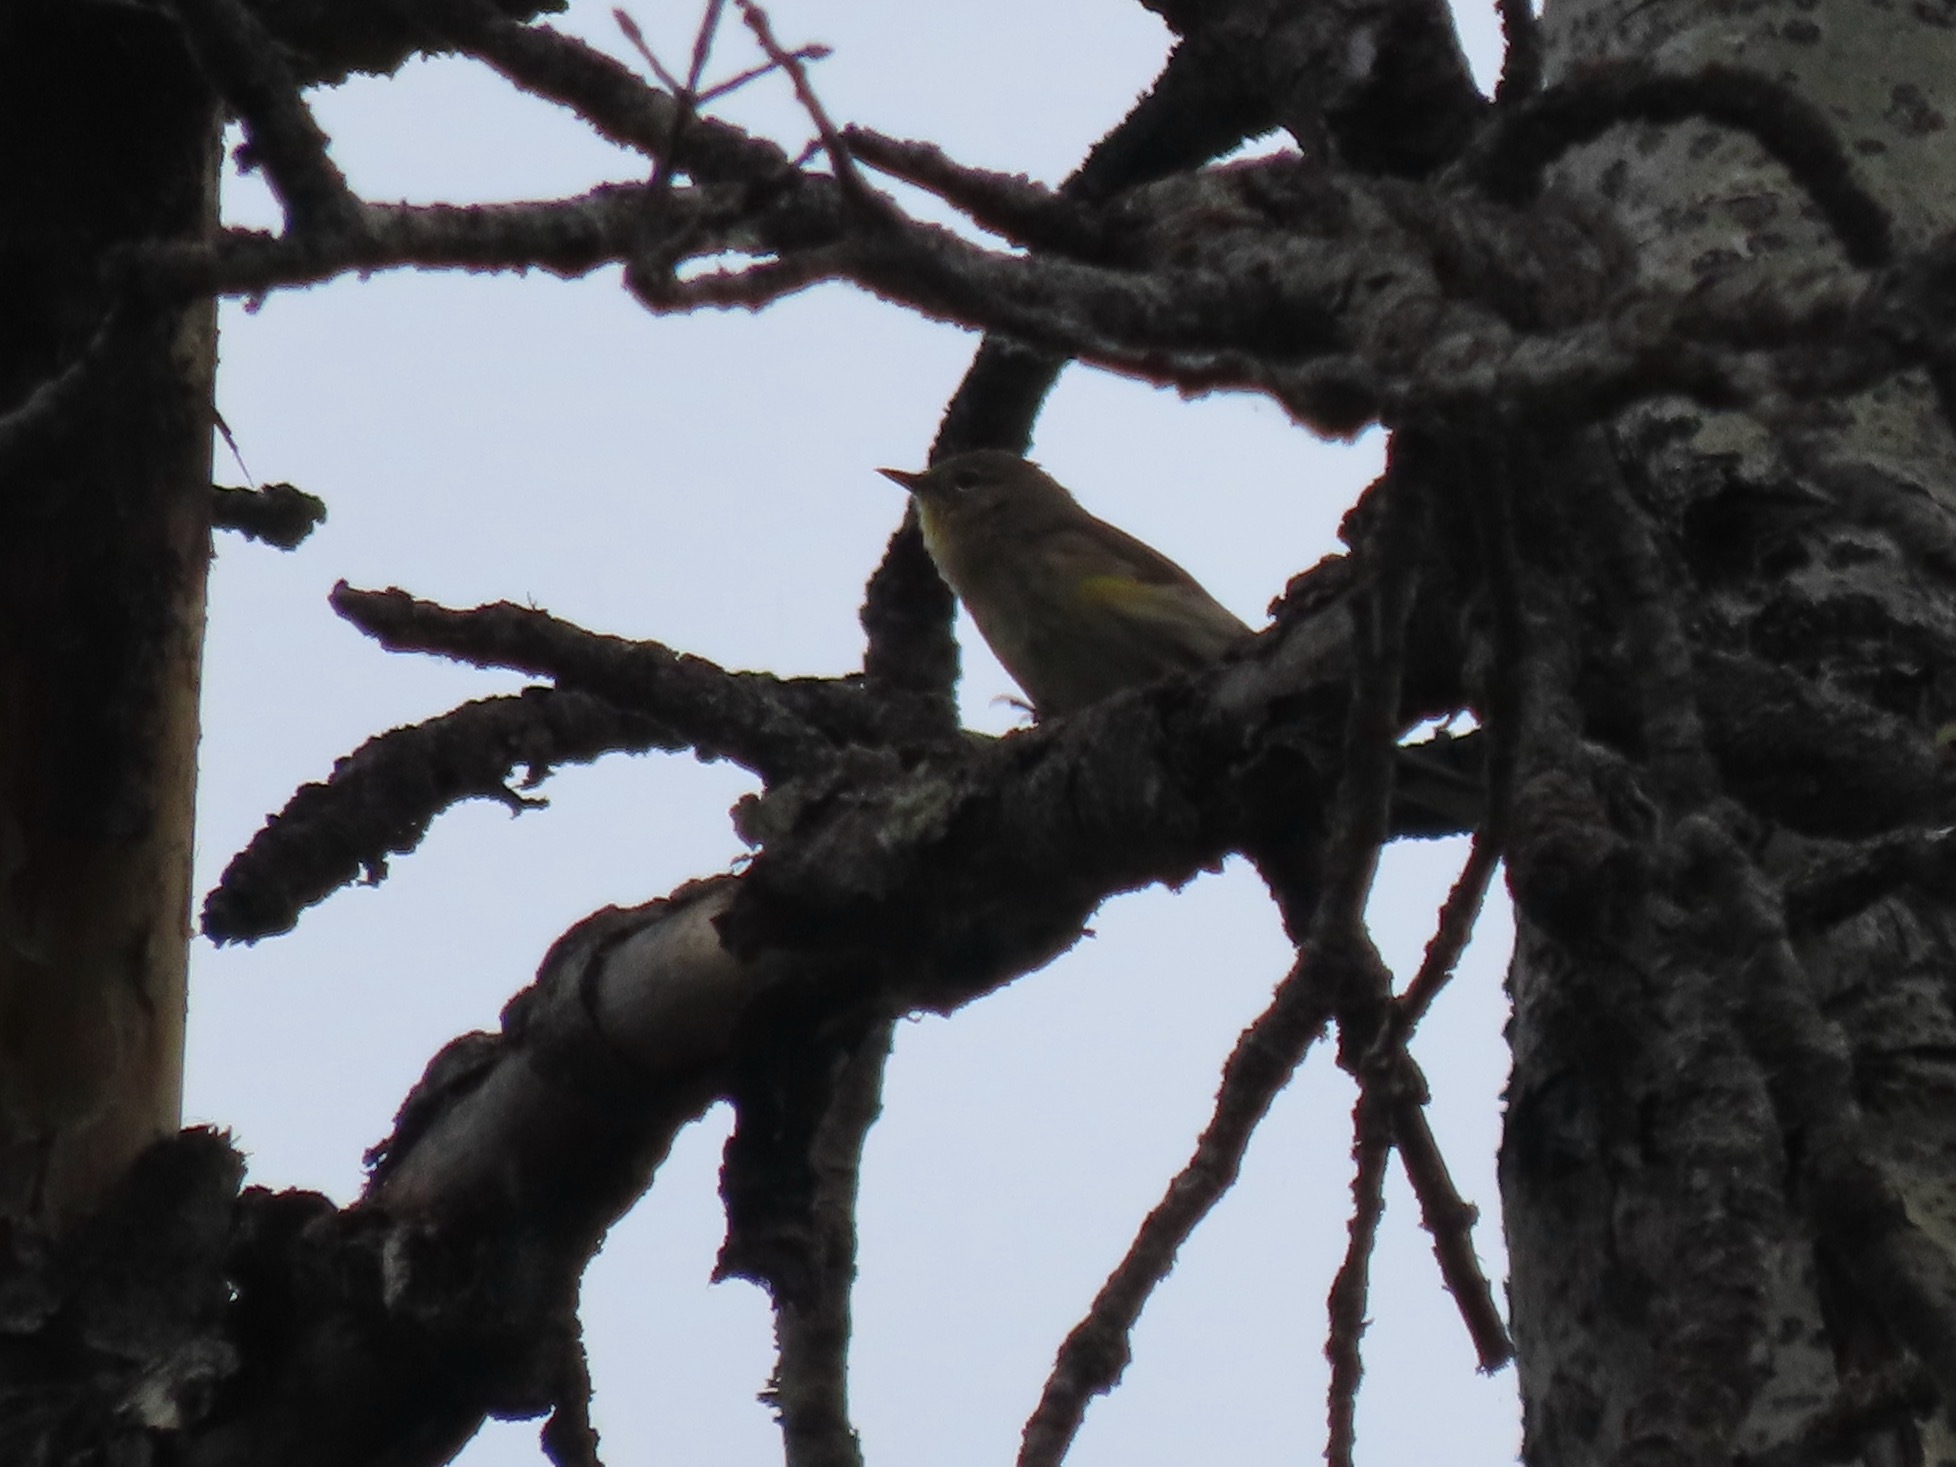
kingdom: Animalia
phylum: Chordata
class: Aves
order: Passeriformes
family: Parulidae
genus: Setophaga
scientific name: Setophaga coronata
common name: Myrtle warbler
